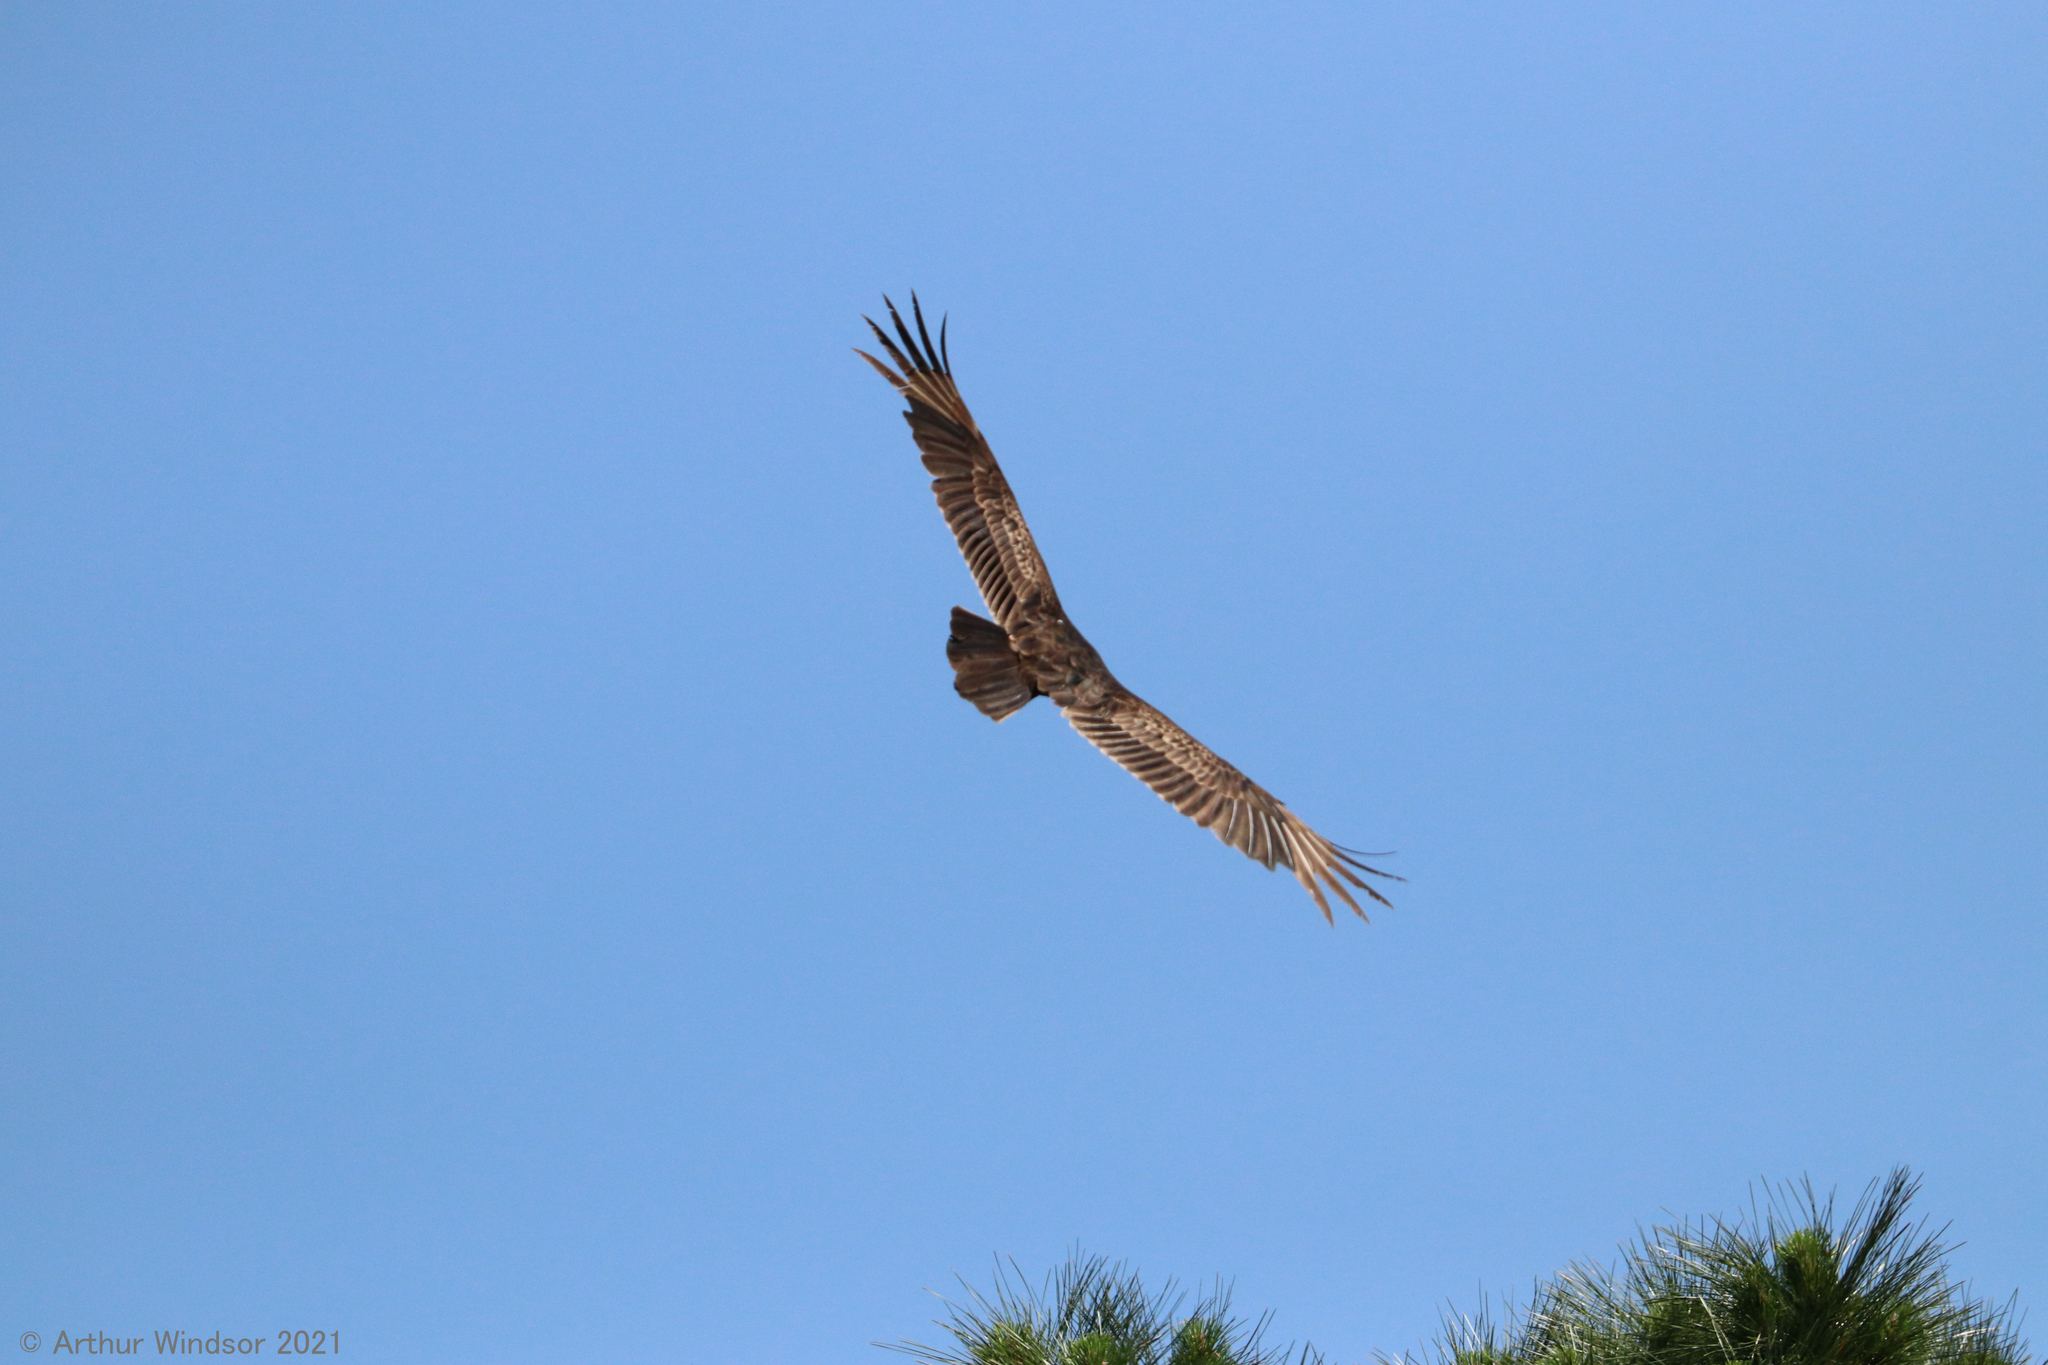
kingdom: Animalia
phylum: Chordata
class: Aves
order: Accipitriformes
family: Cathartidae
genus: Cathartes
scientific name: Cathartes aura
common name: Turkey vulture
